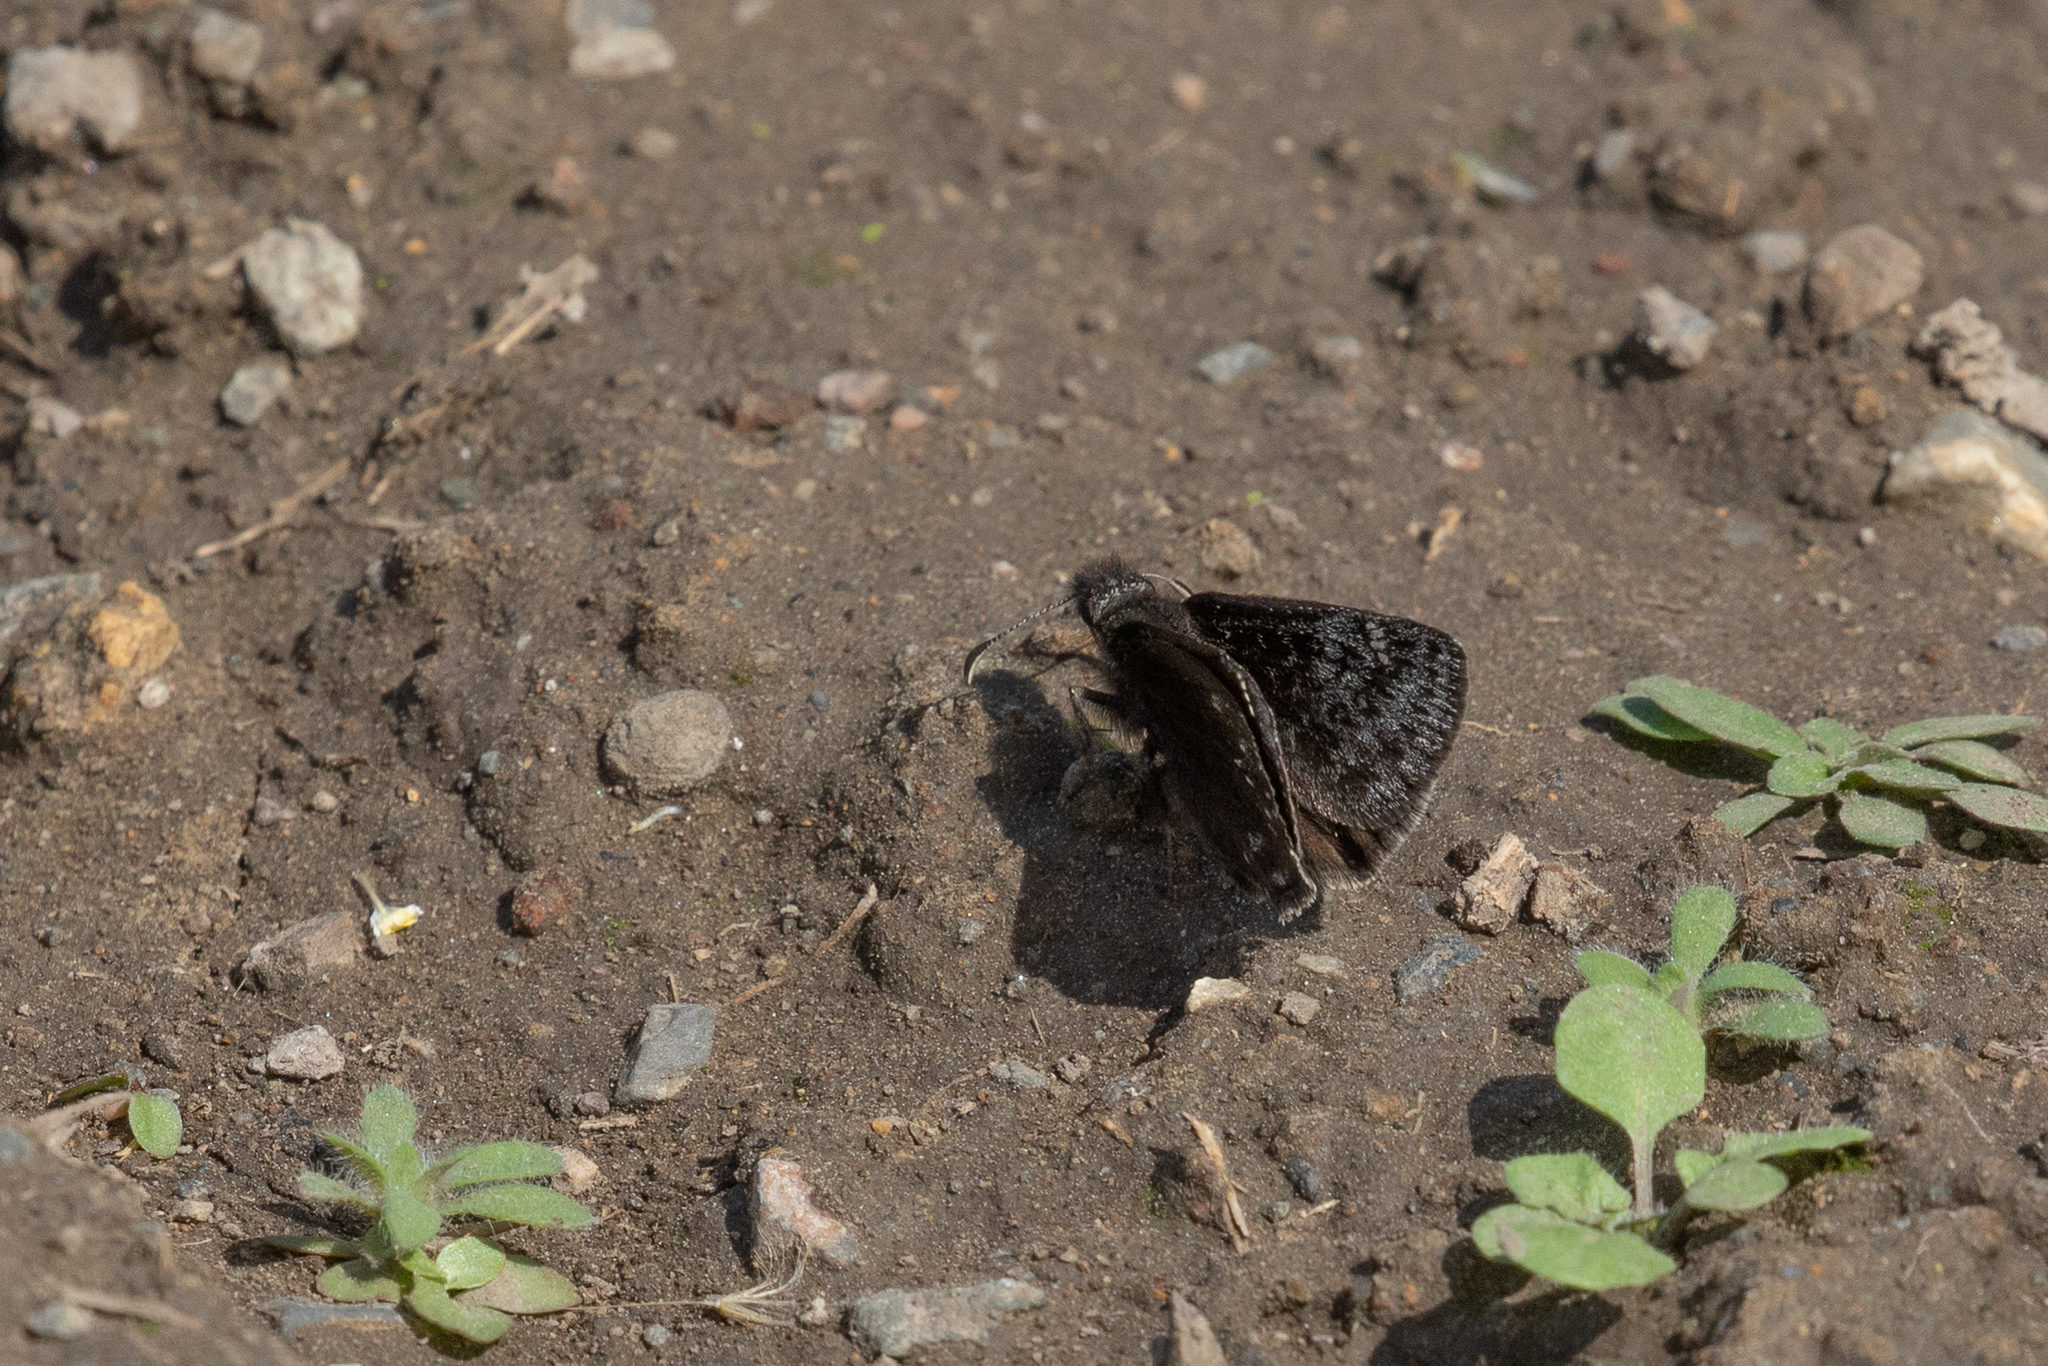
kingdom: Animalia
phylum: Arthropoda
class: Insecta
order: Lepidoptera
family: Hesperiidae
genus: Erynnis
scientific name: Erynnis persius
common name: Persius duskywing
